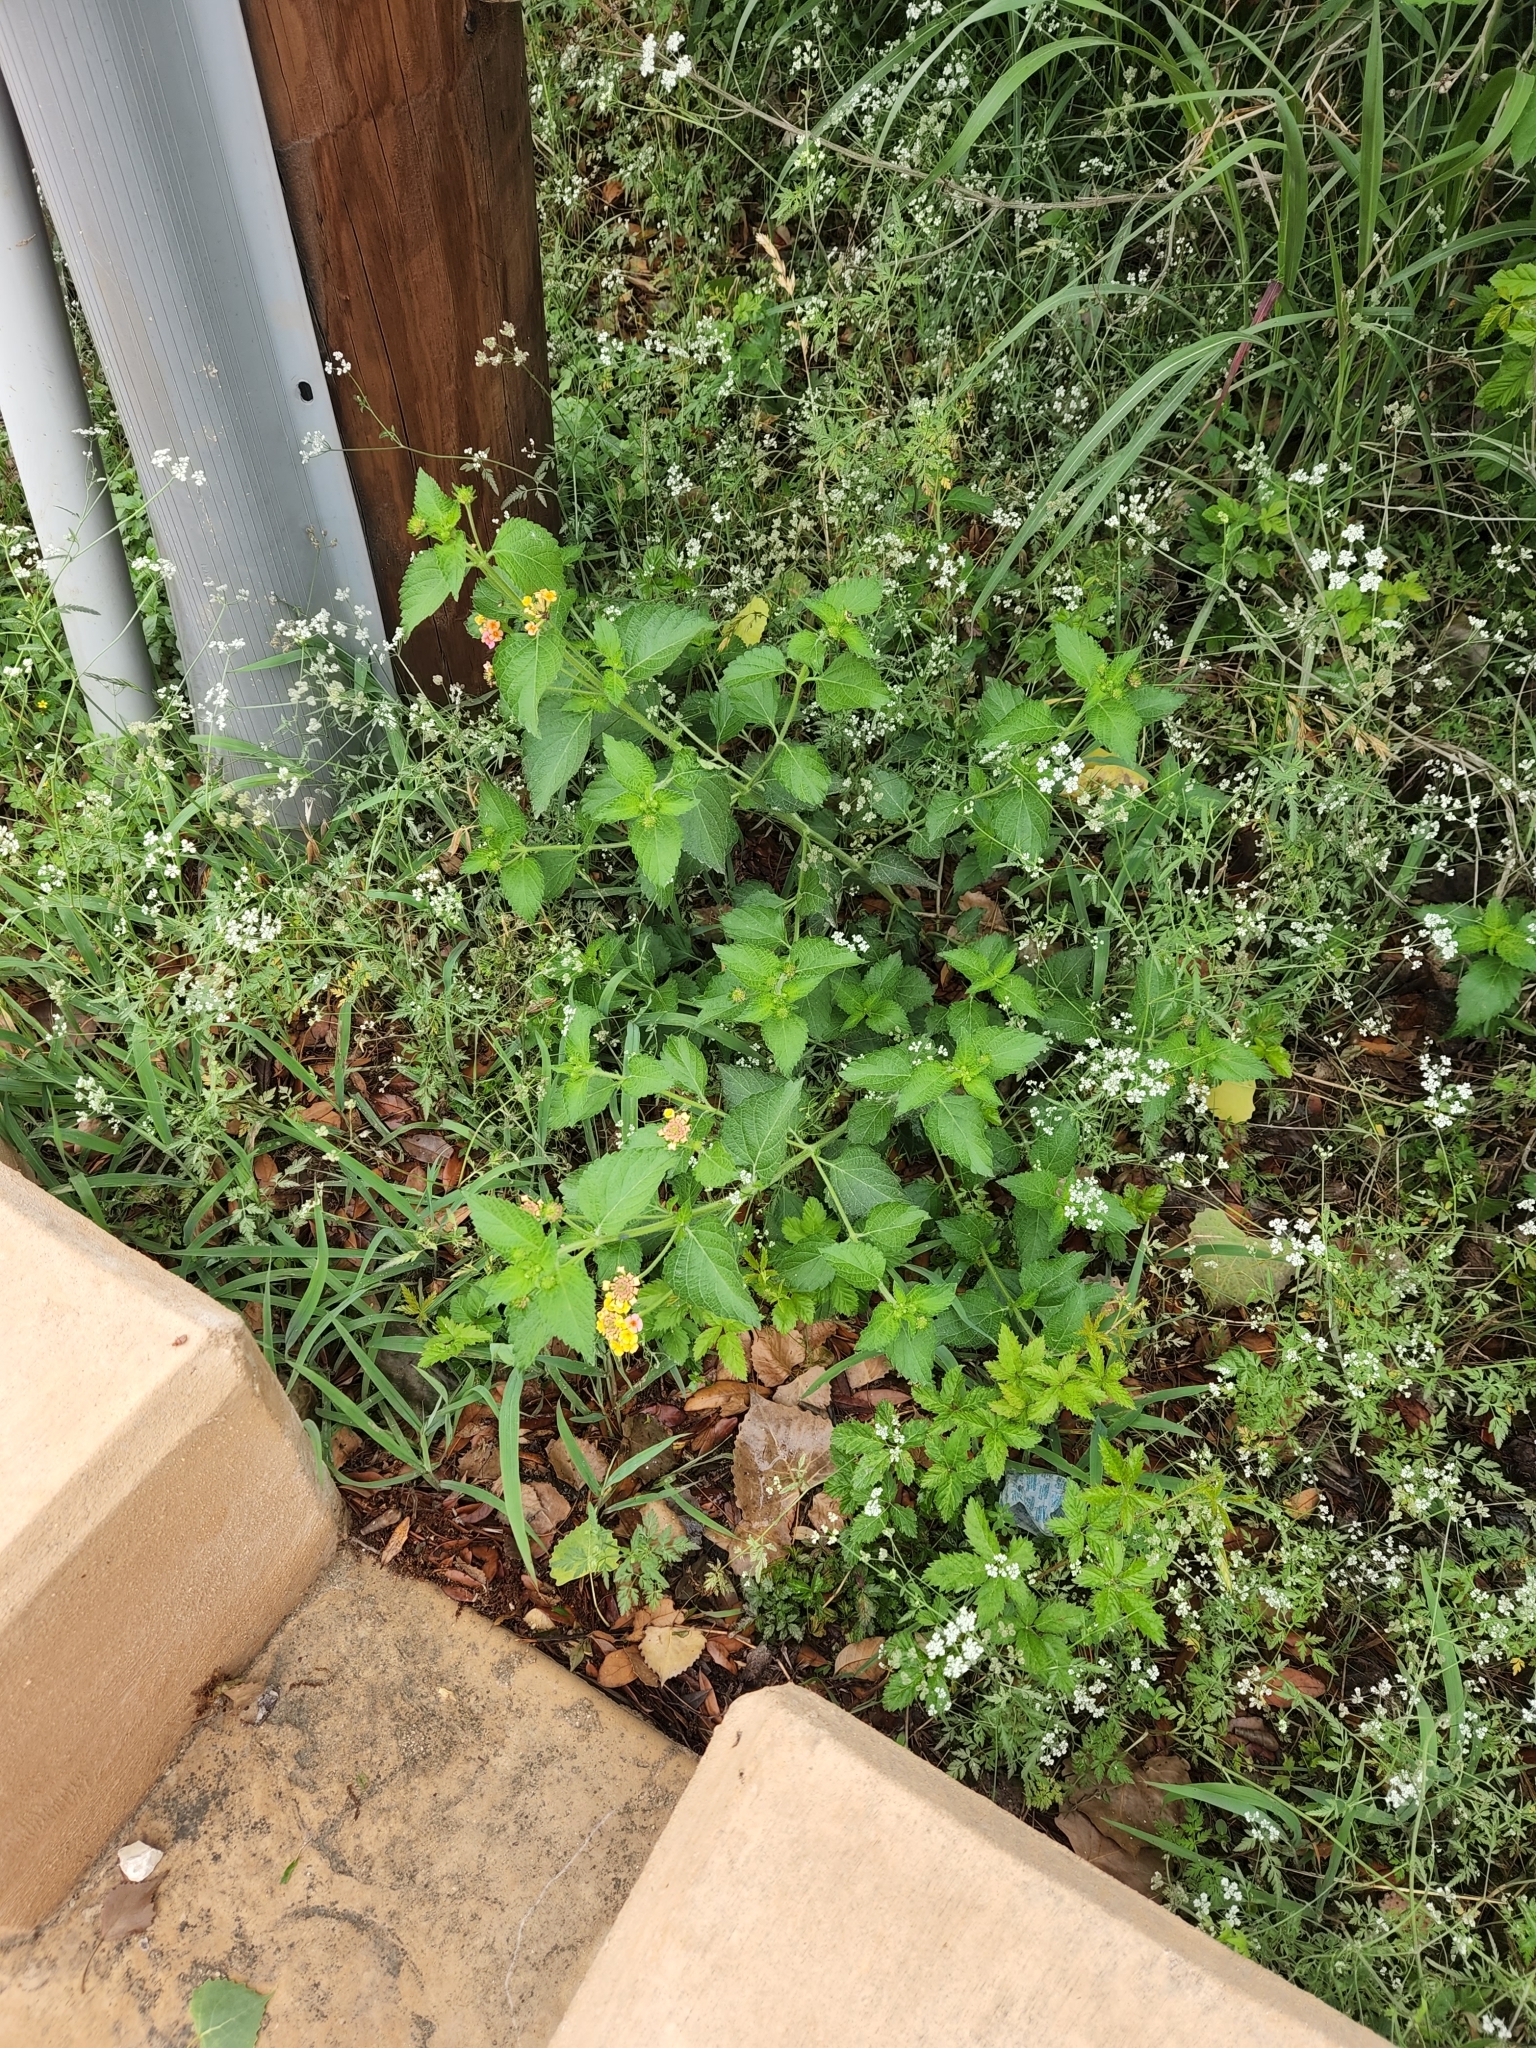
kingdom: Plantae
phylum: Tracheophyta
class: Magnoliopsida
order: Lamiales
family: Verbenaceae
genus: Lantana
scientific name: Lantana strigocamara
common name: Lantana
